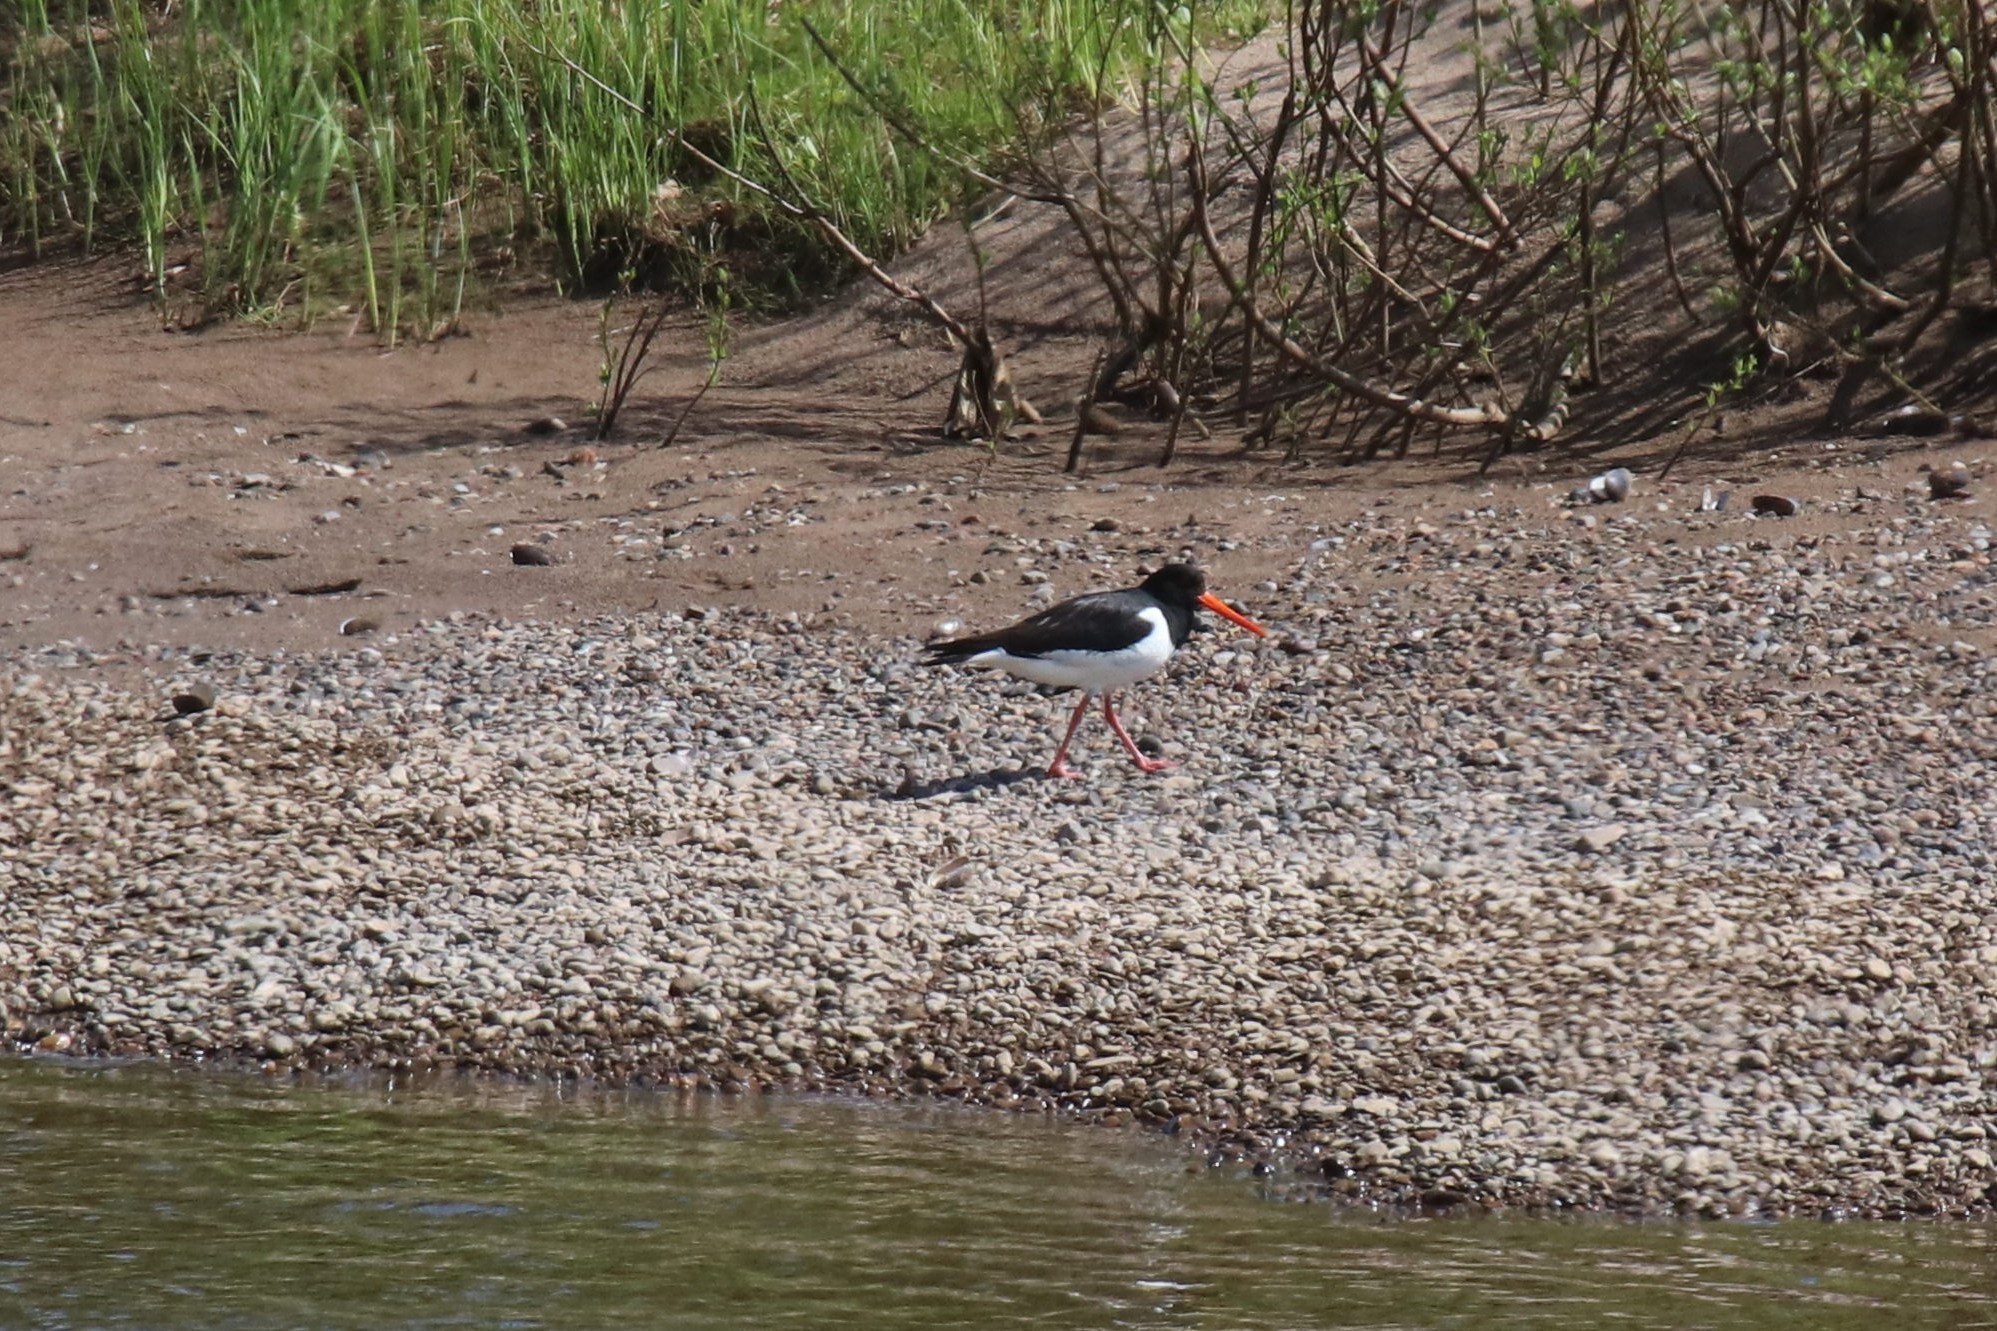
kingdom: Animalia
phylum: Chordata
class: Aves
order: Charadriiformes
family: Haematopodidae
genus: Haematopus
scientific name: Haematopus ostralegus
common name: Eurasian oystercatcher
